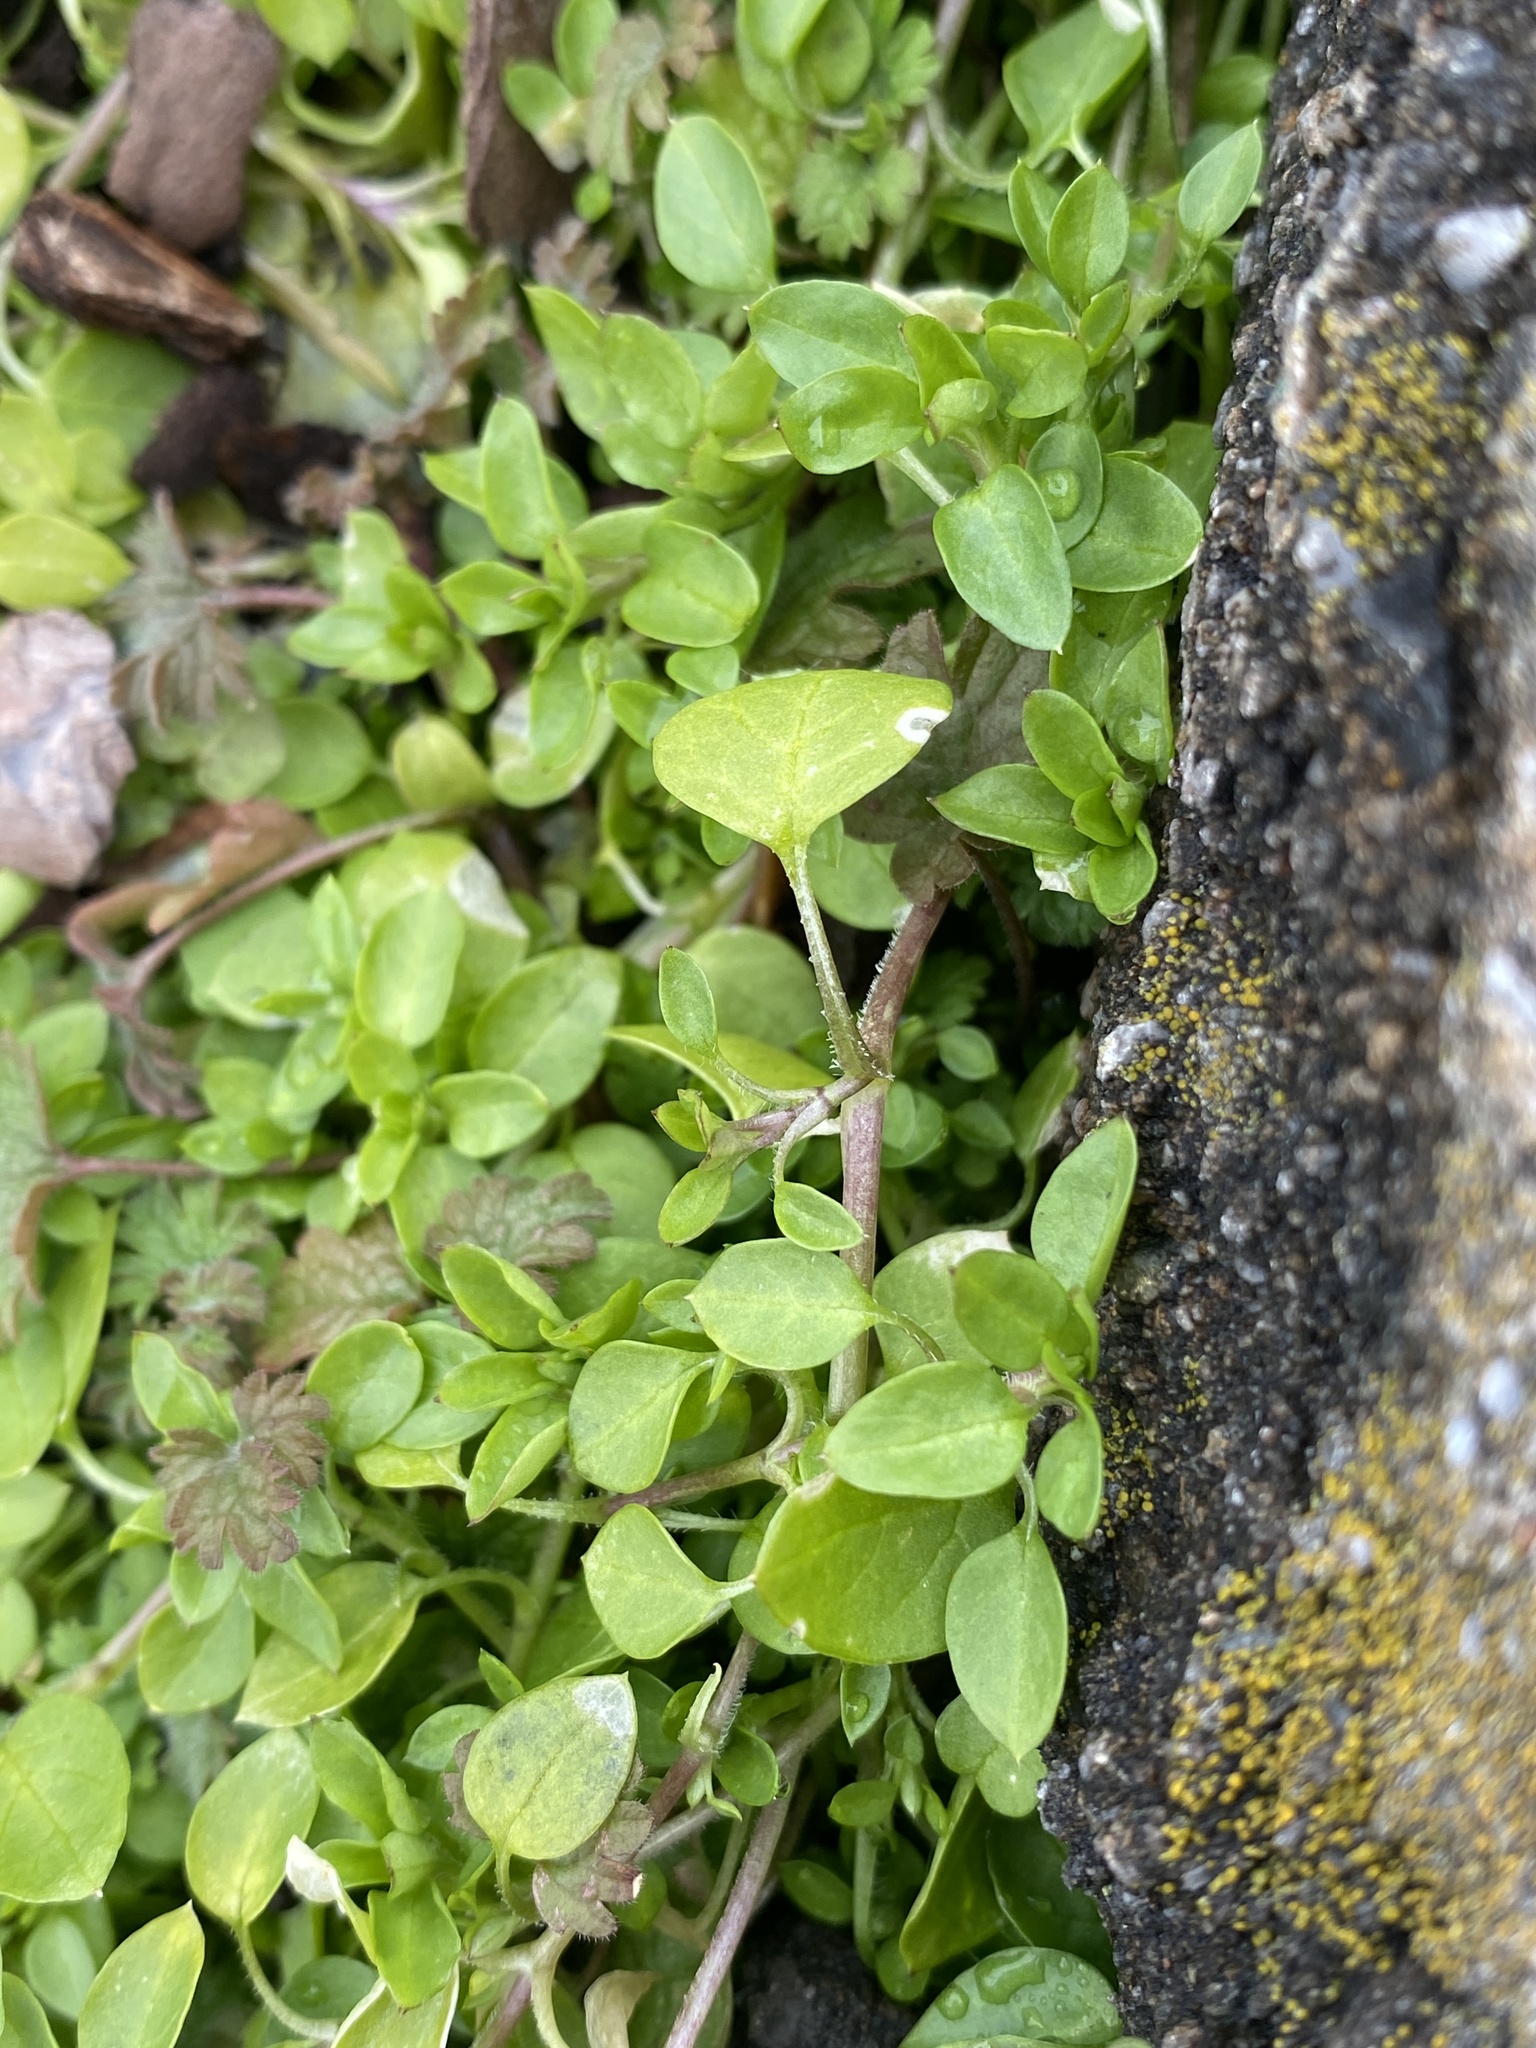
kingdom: Plantae
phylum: Tracheophyta
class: Magnoliopsida
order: Caryophyllales
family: Caryophyllaceae
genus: Stellaria
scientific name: Stellaria media
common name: Common chickweed
